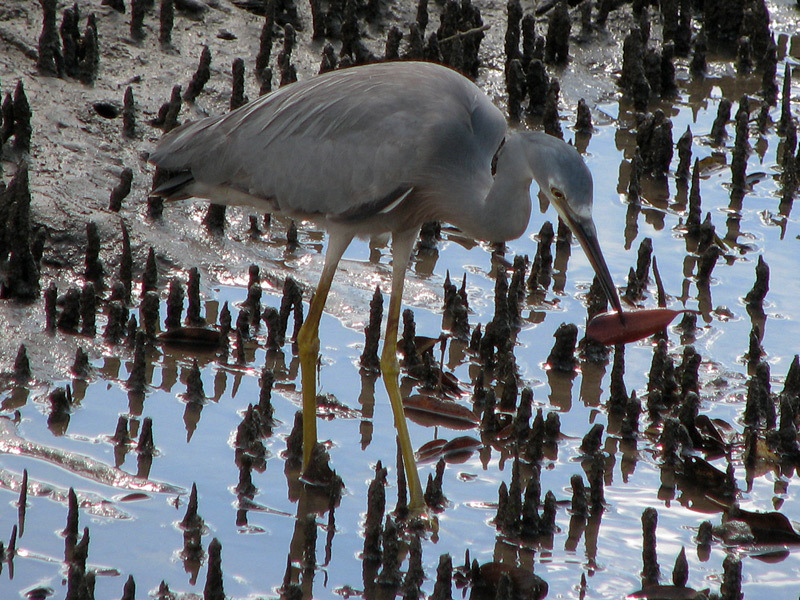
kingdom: Animalia
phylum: Chordata
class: Aves
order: Pelecaniformes
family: Ardeidae
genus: Egretta
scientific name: Egretta novaehollandiae
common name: White-faced heron
